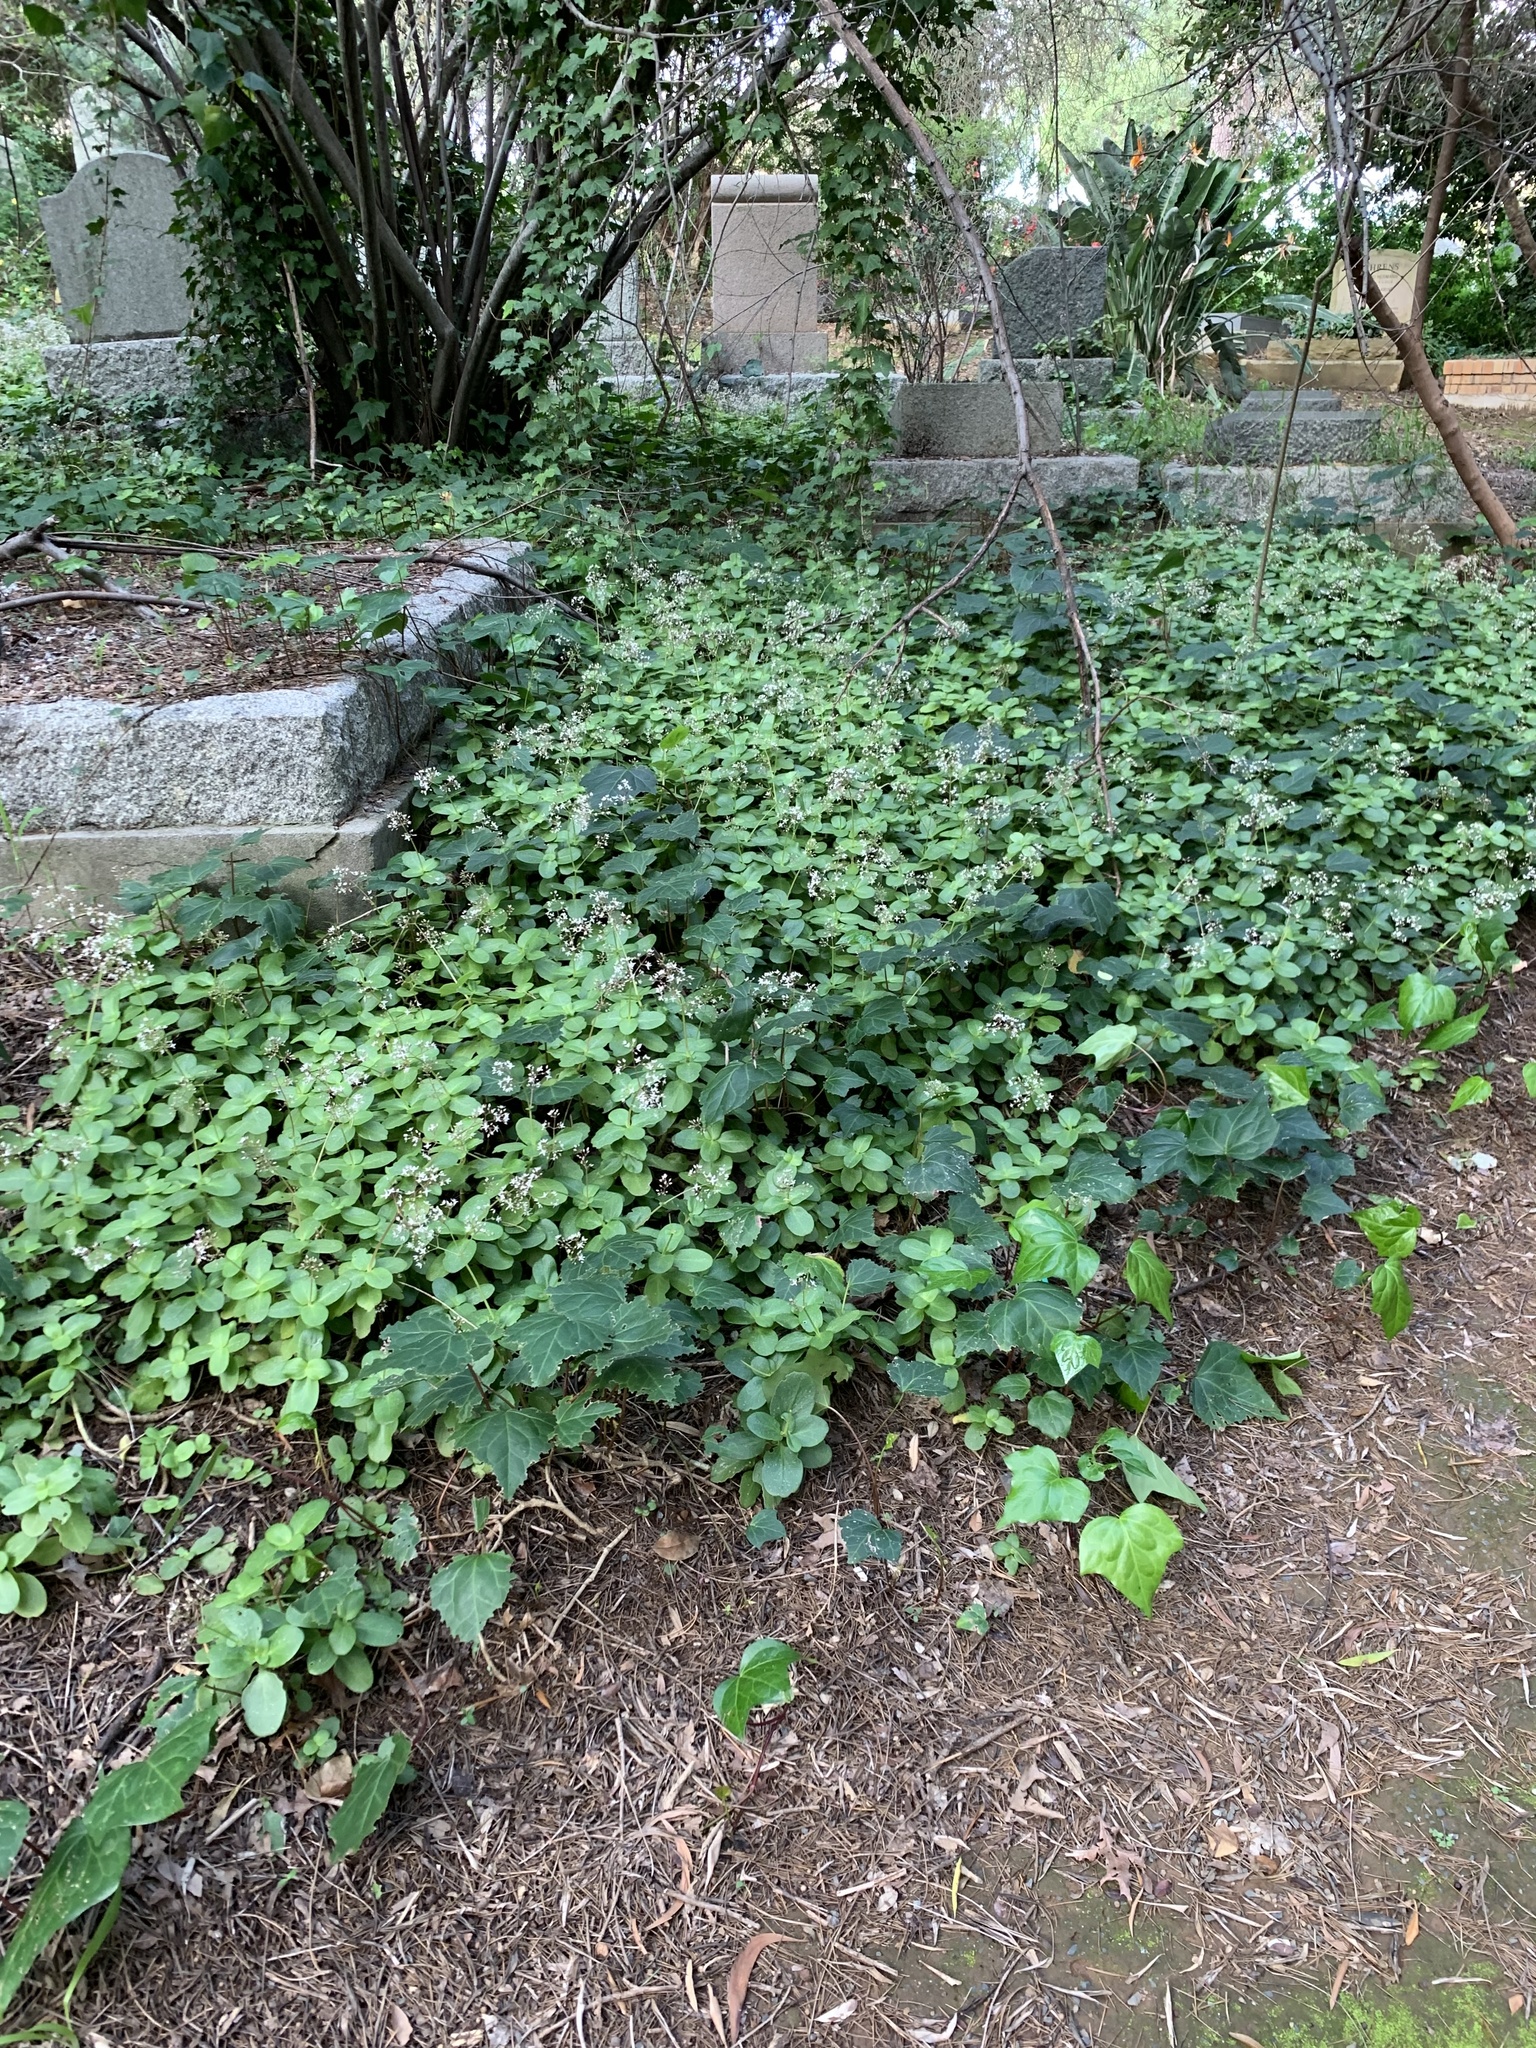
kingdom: Plantae
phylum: Tracheophyta
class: Magnoliopsida
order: Saxifragales
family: Crassulaceae
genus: Crassula
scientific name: Crassula multicava
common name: Cape province pygmyweed
